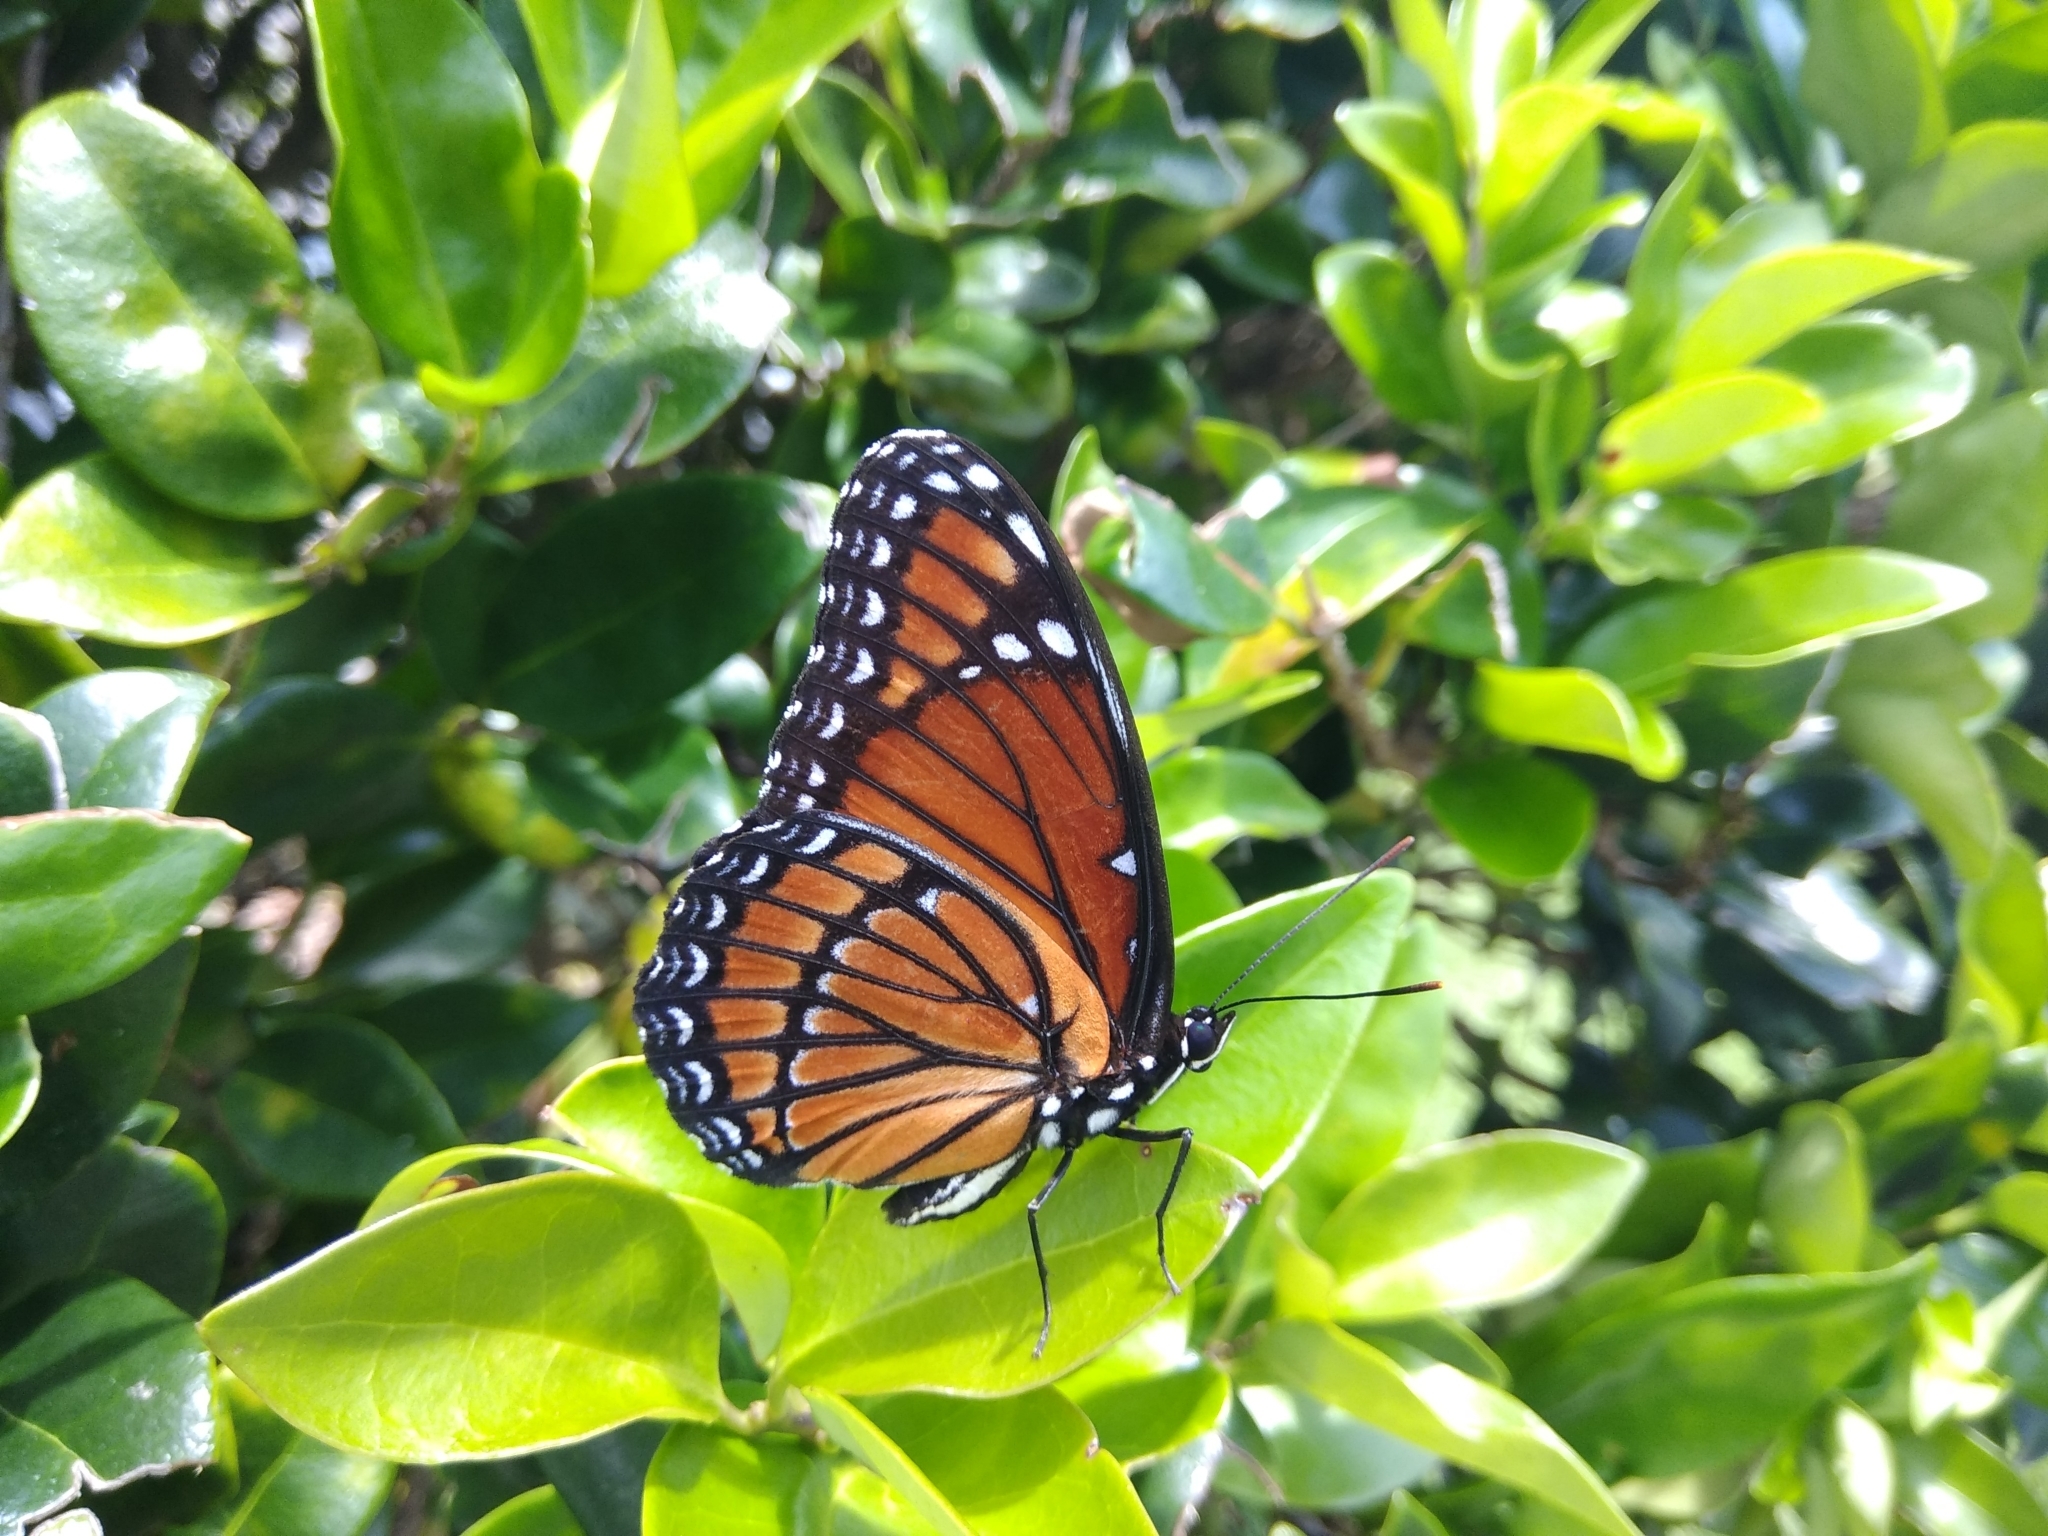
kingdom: Animalia
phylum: Arthropoda
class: Insecta
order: Lepidoptera
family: Nymphalidae
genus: Limenitis
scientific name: Limenitis archippus
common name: Viceroy
